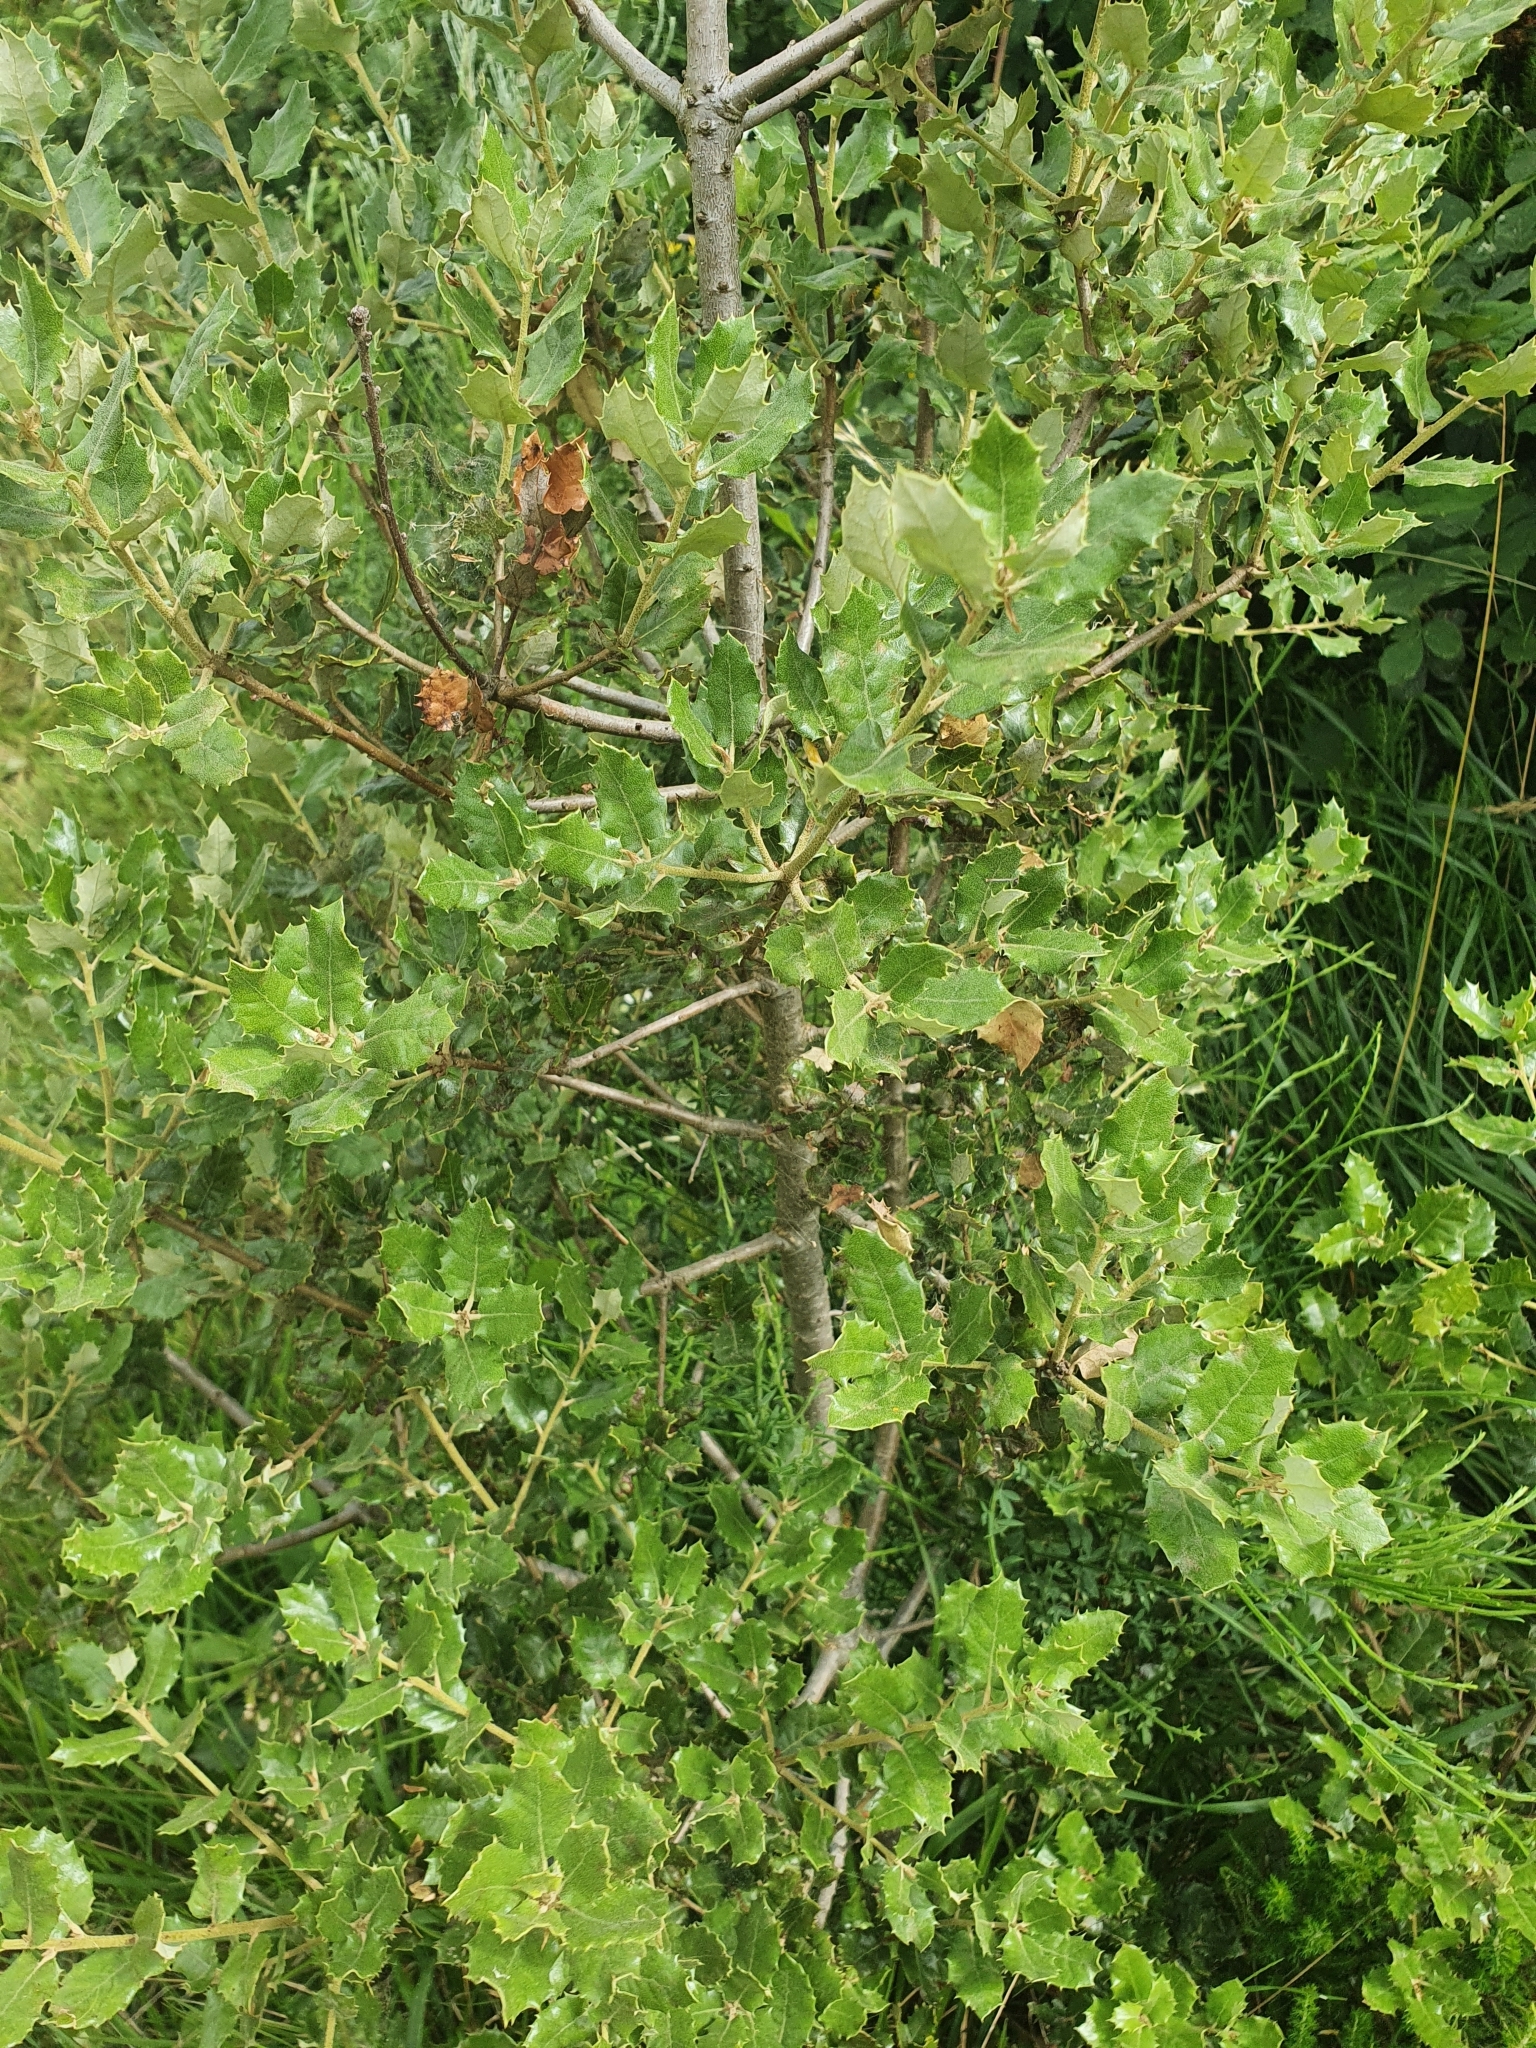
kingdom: Plantae
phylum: Tracheophyta
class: Magnoliopsida
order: Fagales
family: Fagaceae
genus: Quercus
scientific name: Quercus rotundifolia
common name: Holm oak
